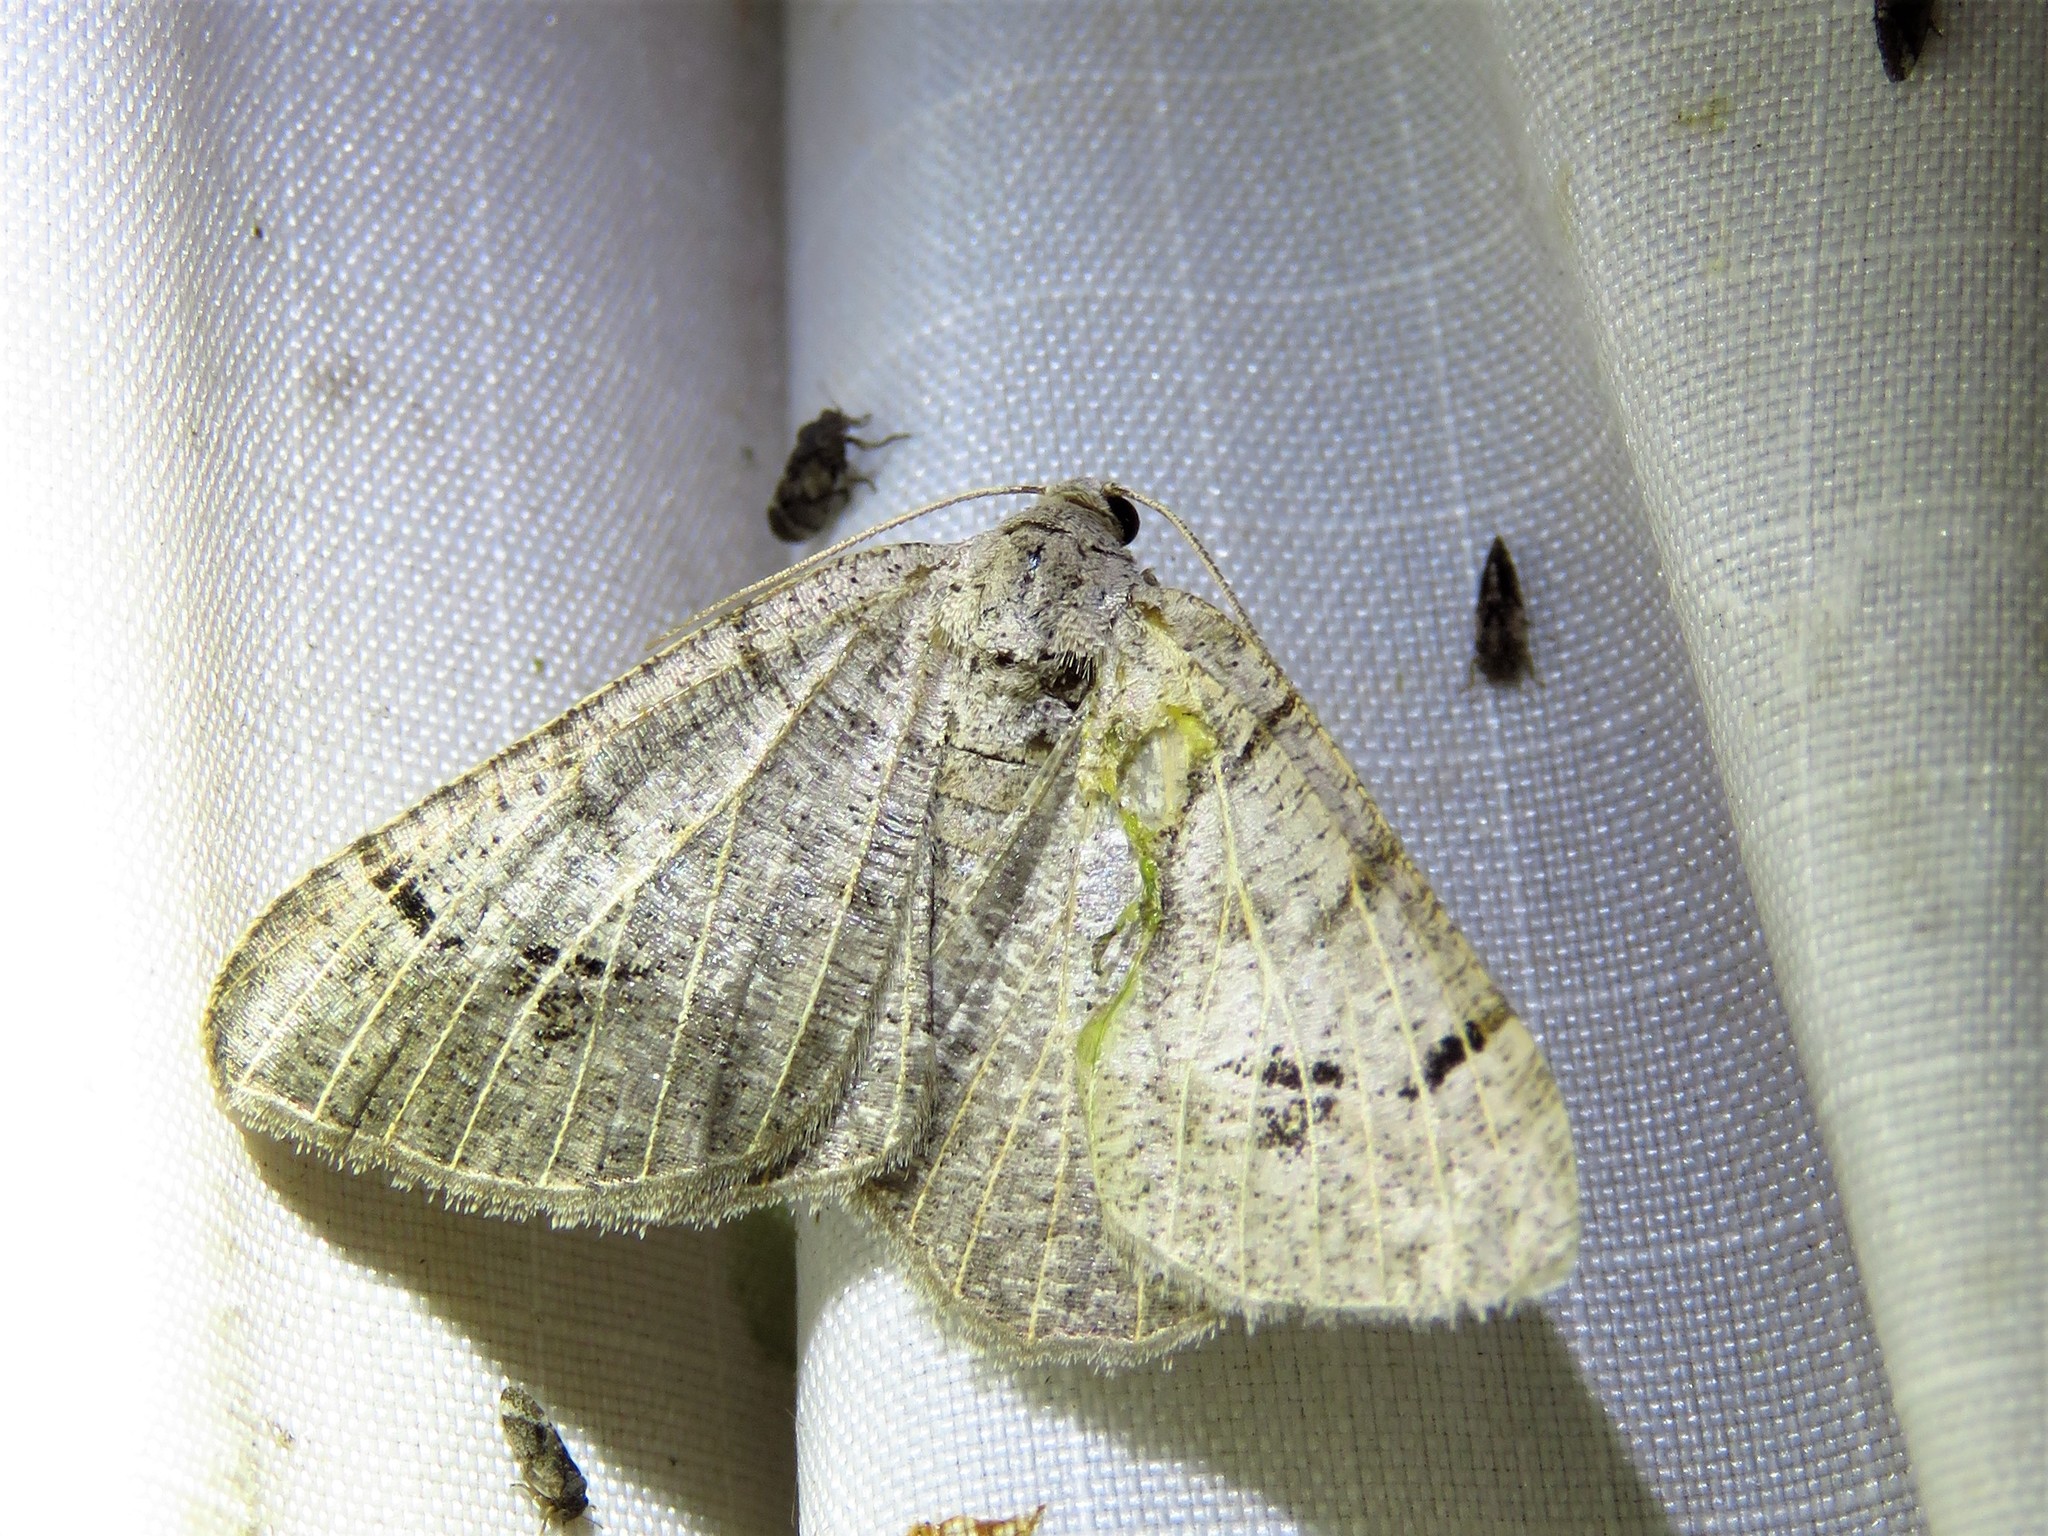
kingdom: Animalia
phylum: Arthropoda
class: Insecta
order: Lepidoptera
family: Geometridae
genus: Isturgia
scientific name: Isturgia dislocaria
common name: Pale-viened enconista
